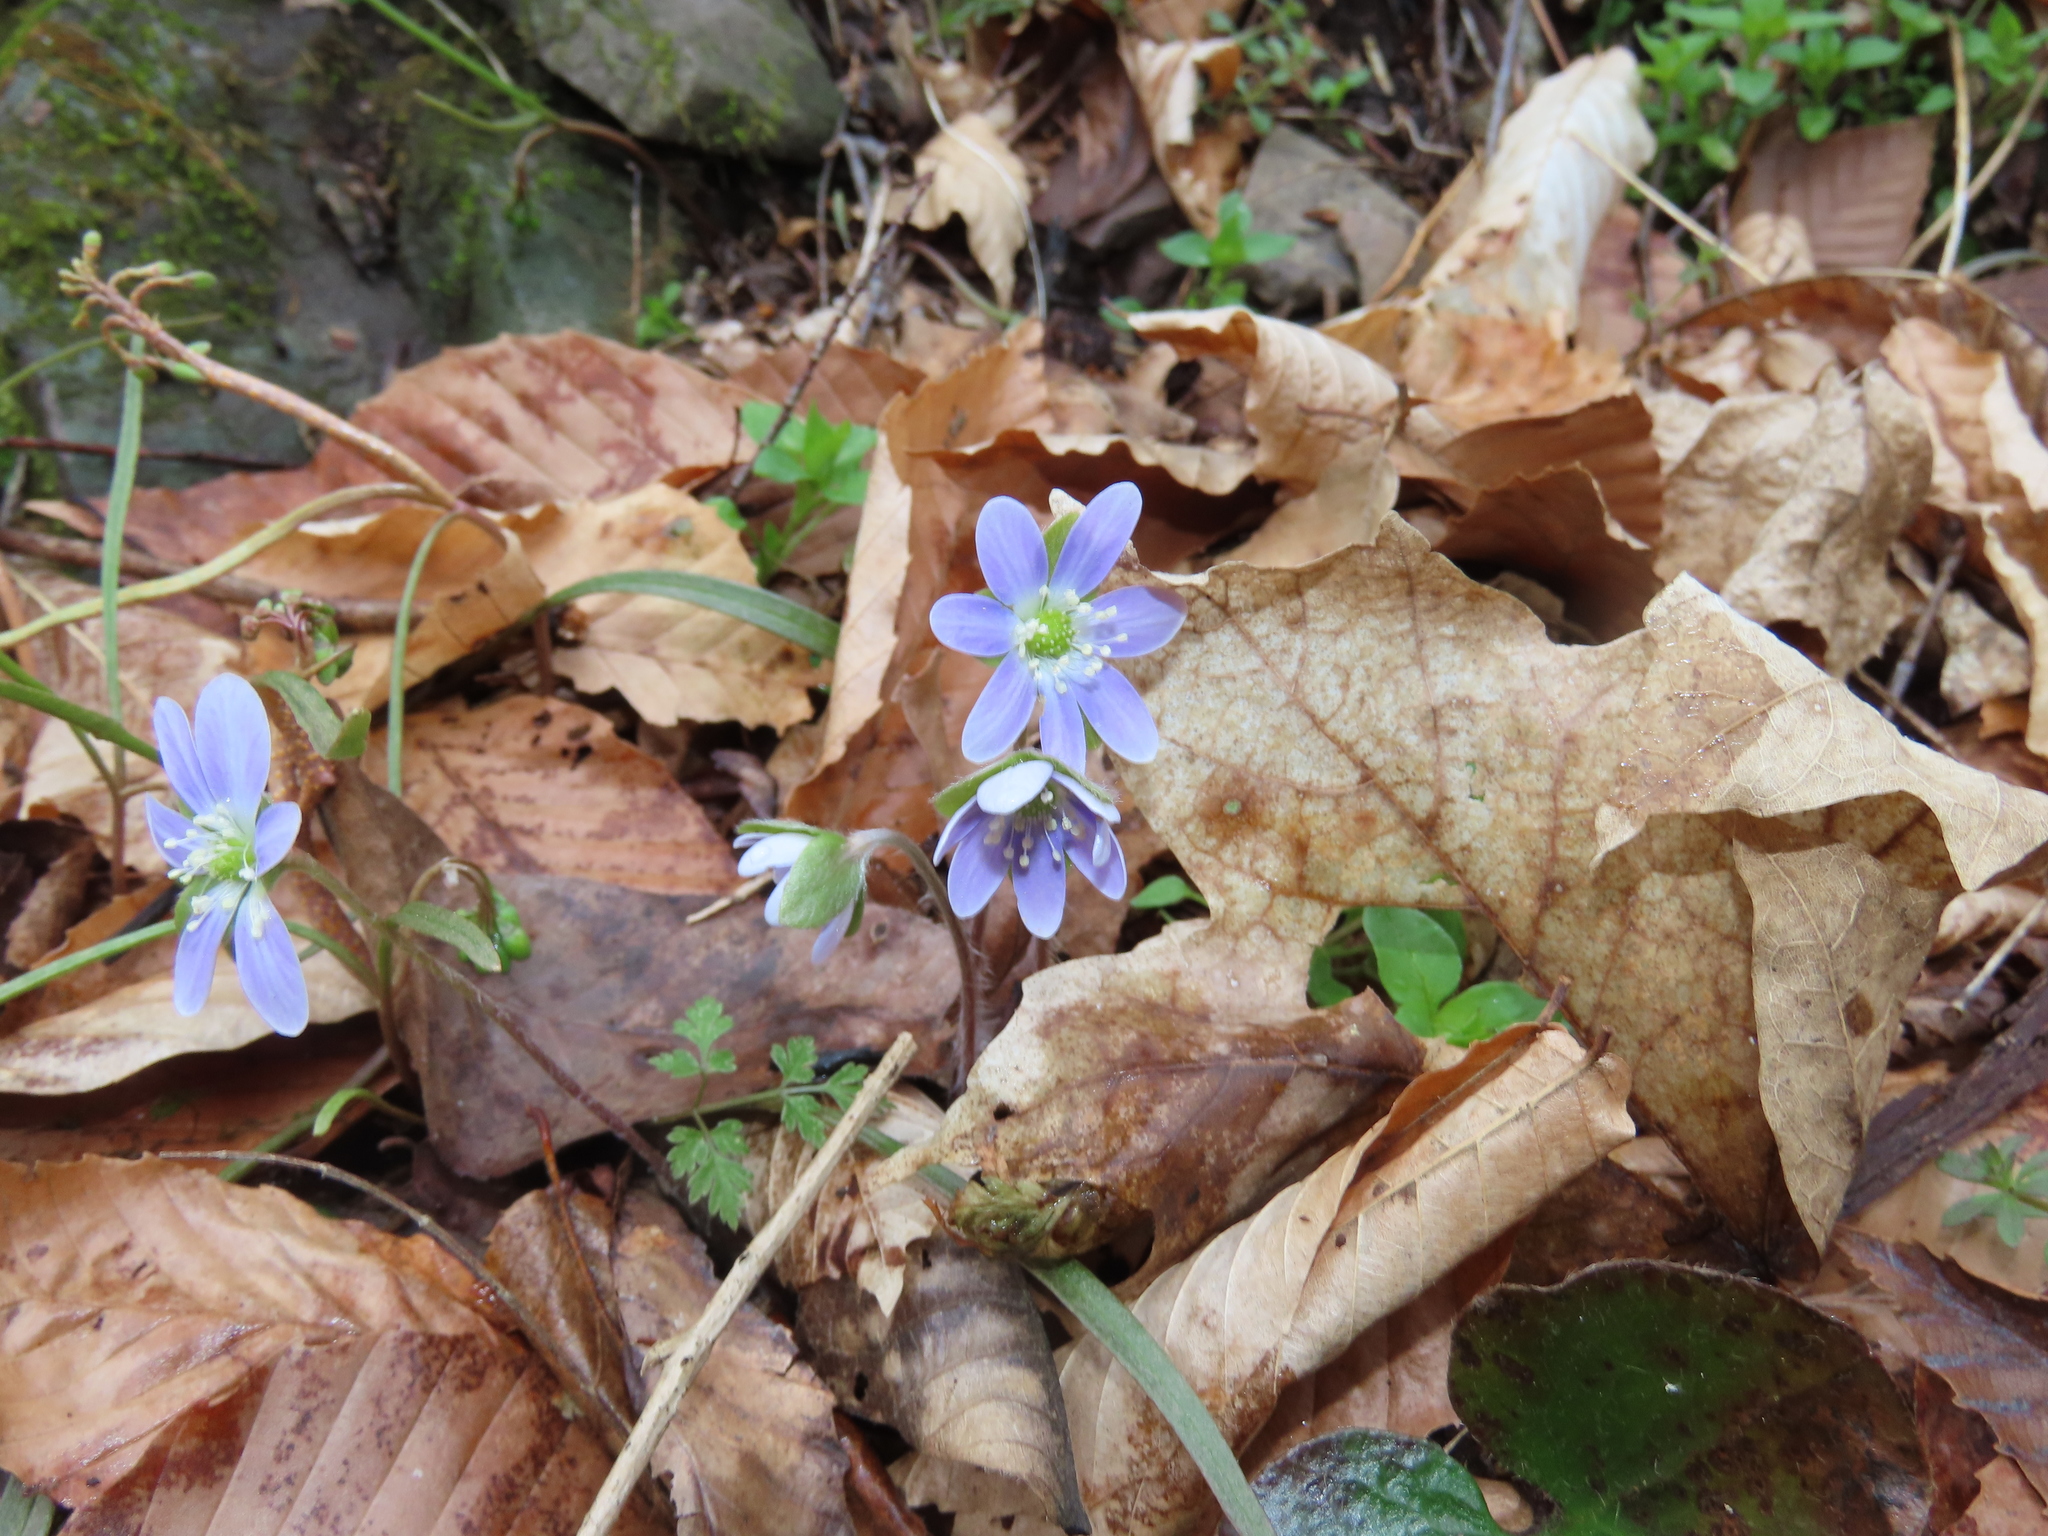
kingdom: Plantae
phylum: Tracheophyta
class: Magnoliopsida
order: Ranunculales
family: Ranunculaceae
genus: Hepatica
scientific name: Hepatica americana
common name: American hepatica
